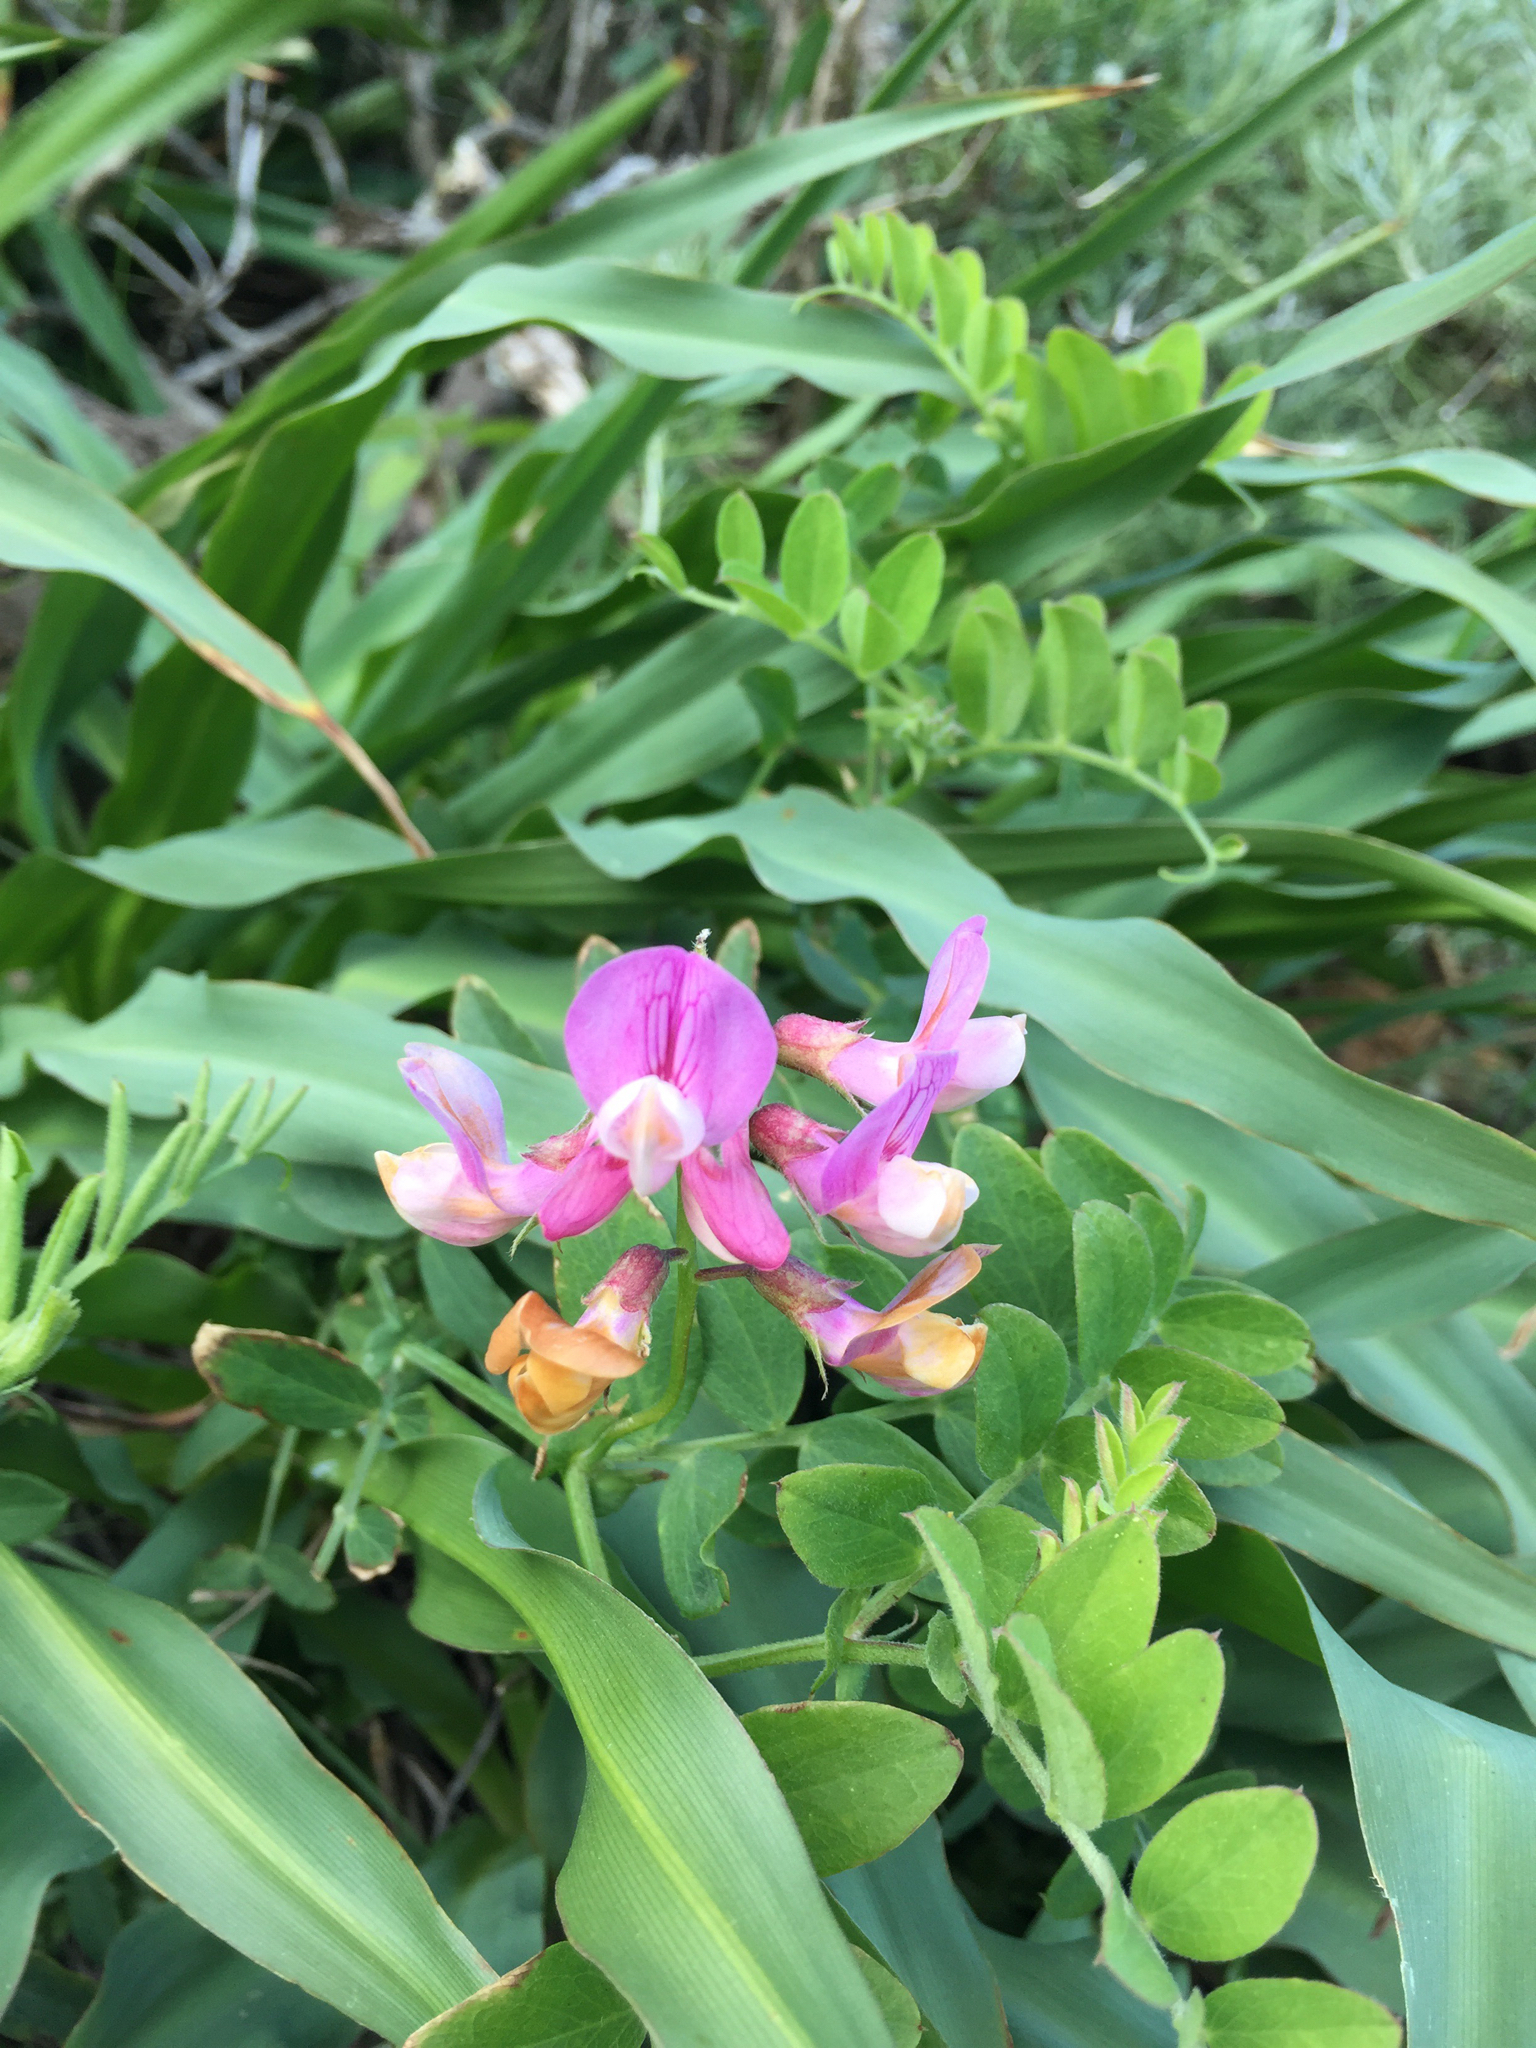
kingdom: Plantae
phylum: Tracheophyta
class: Magnoliopsida
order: Fabales
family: Fabaceae
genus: Lathyrus
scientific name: Lathyrus vestitus
